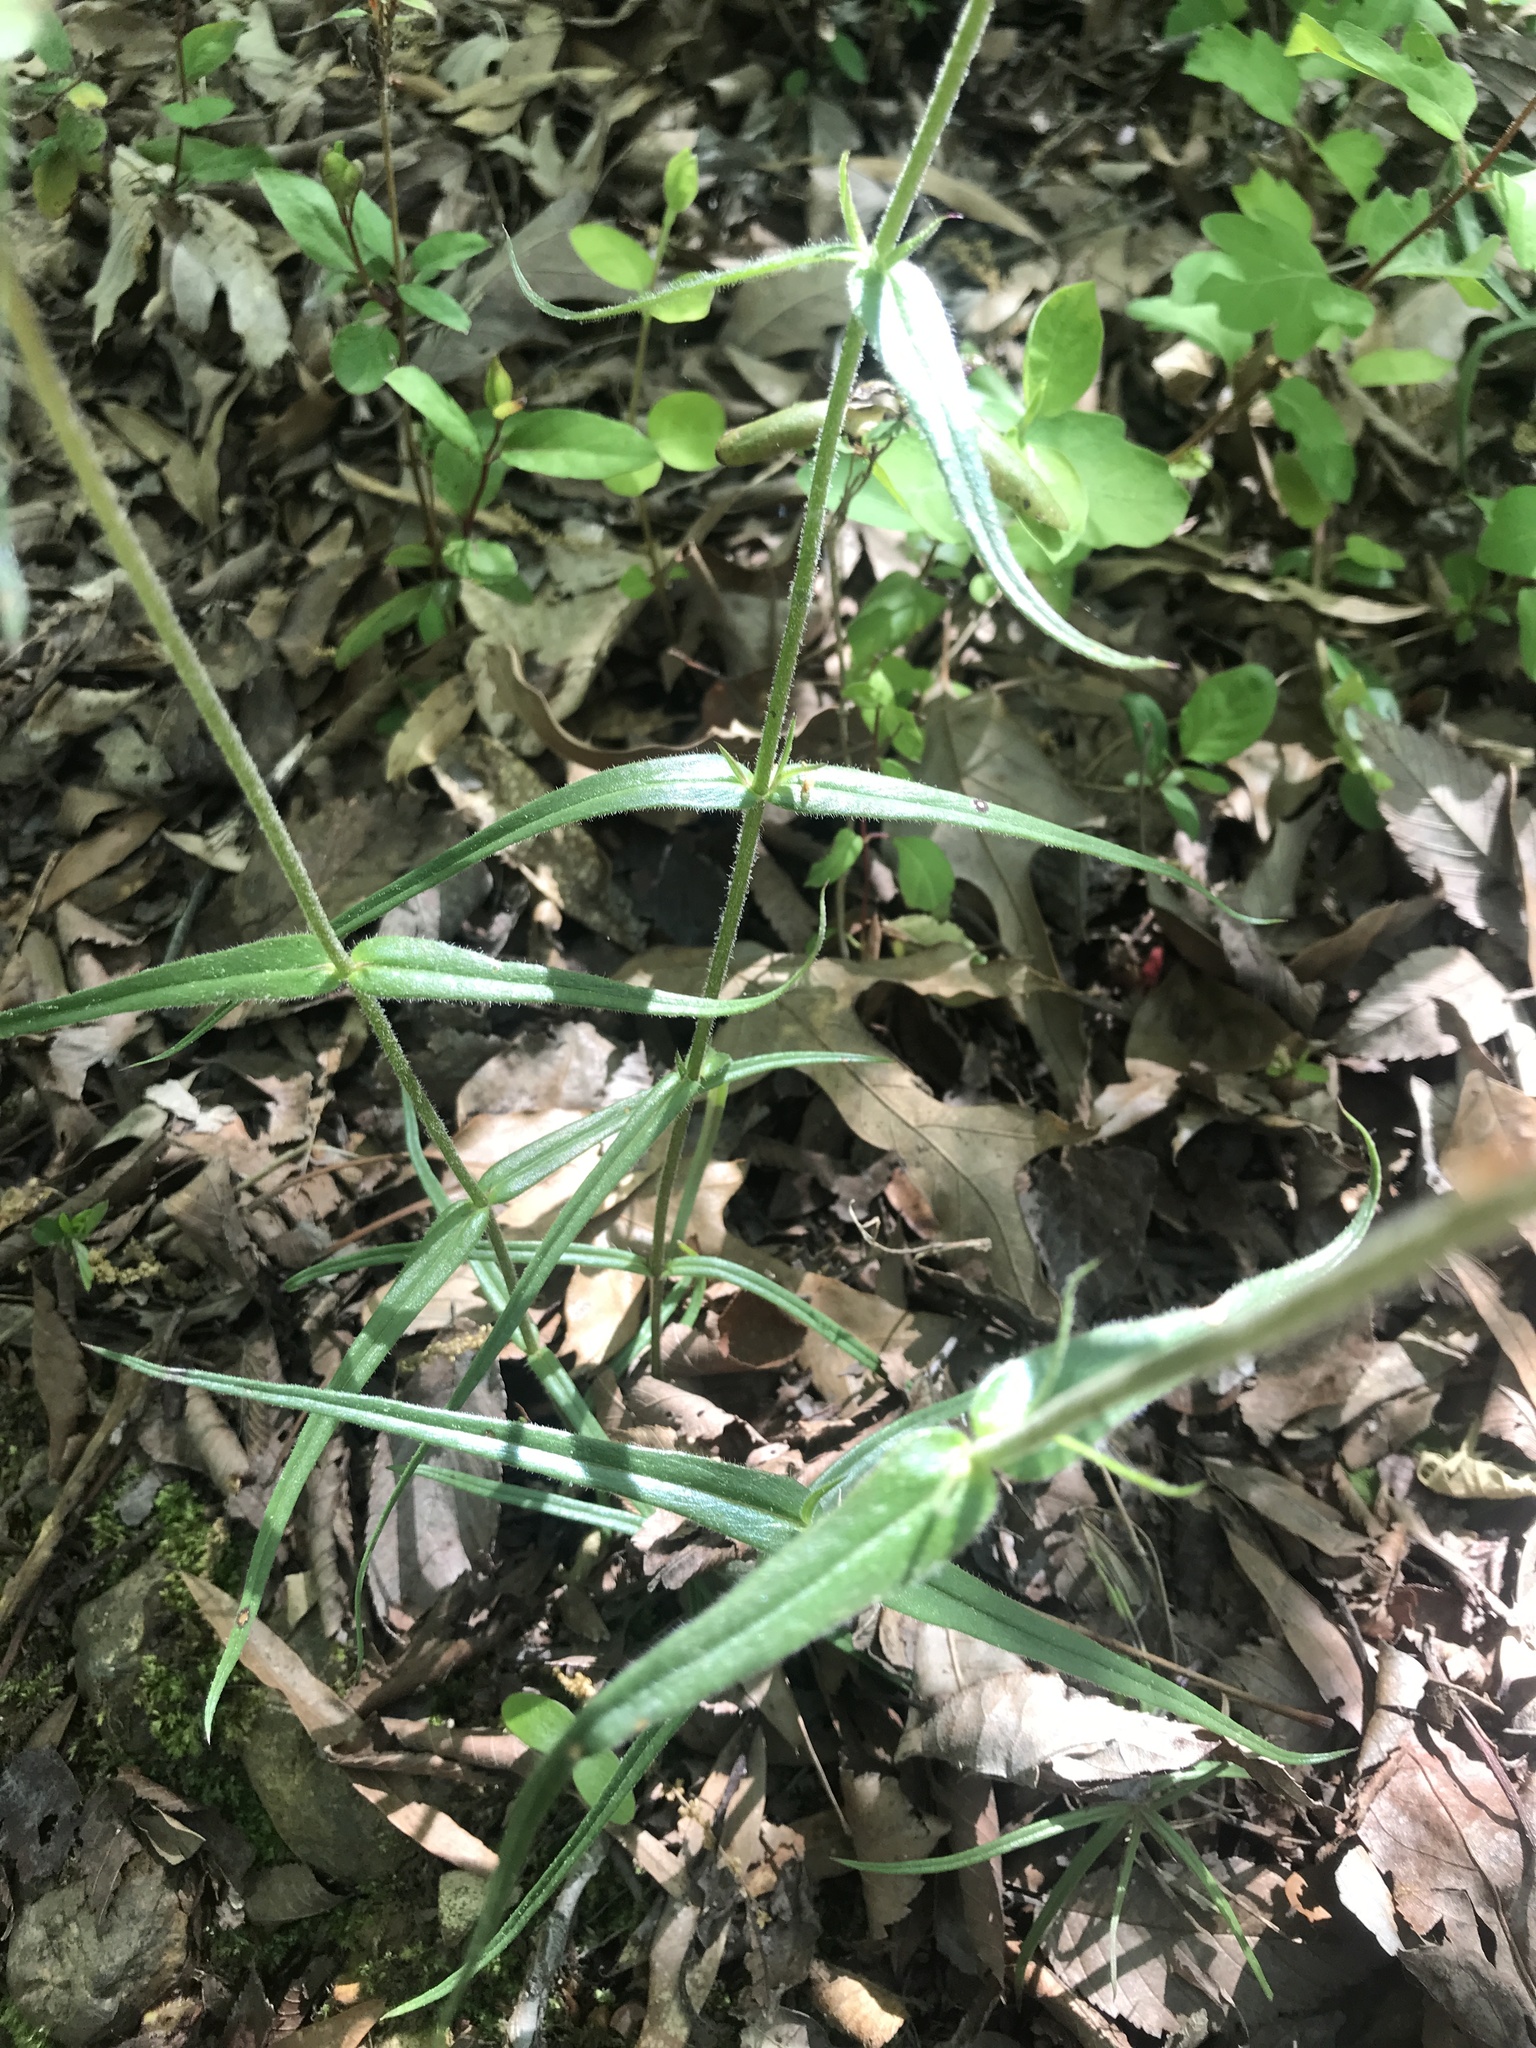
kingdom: Plantae
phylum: Tracheophyta
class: Magnoliopsida
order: Ericales
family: Polemoniaceae
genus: Phlox
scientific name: Phlox pilosa
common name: Prairie phlox
